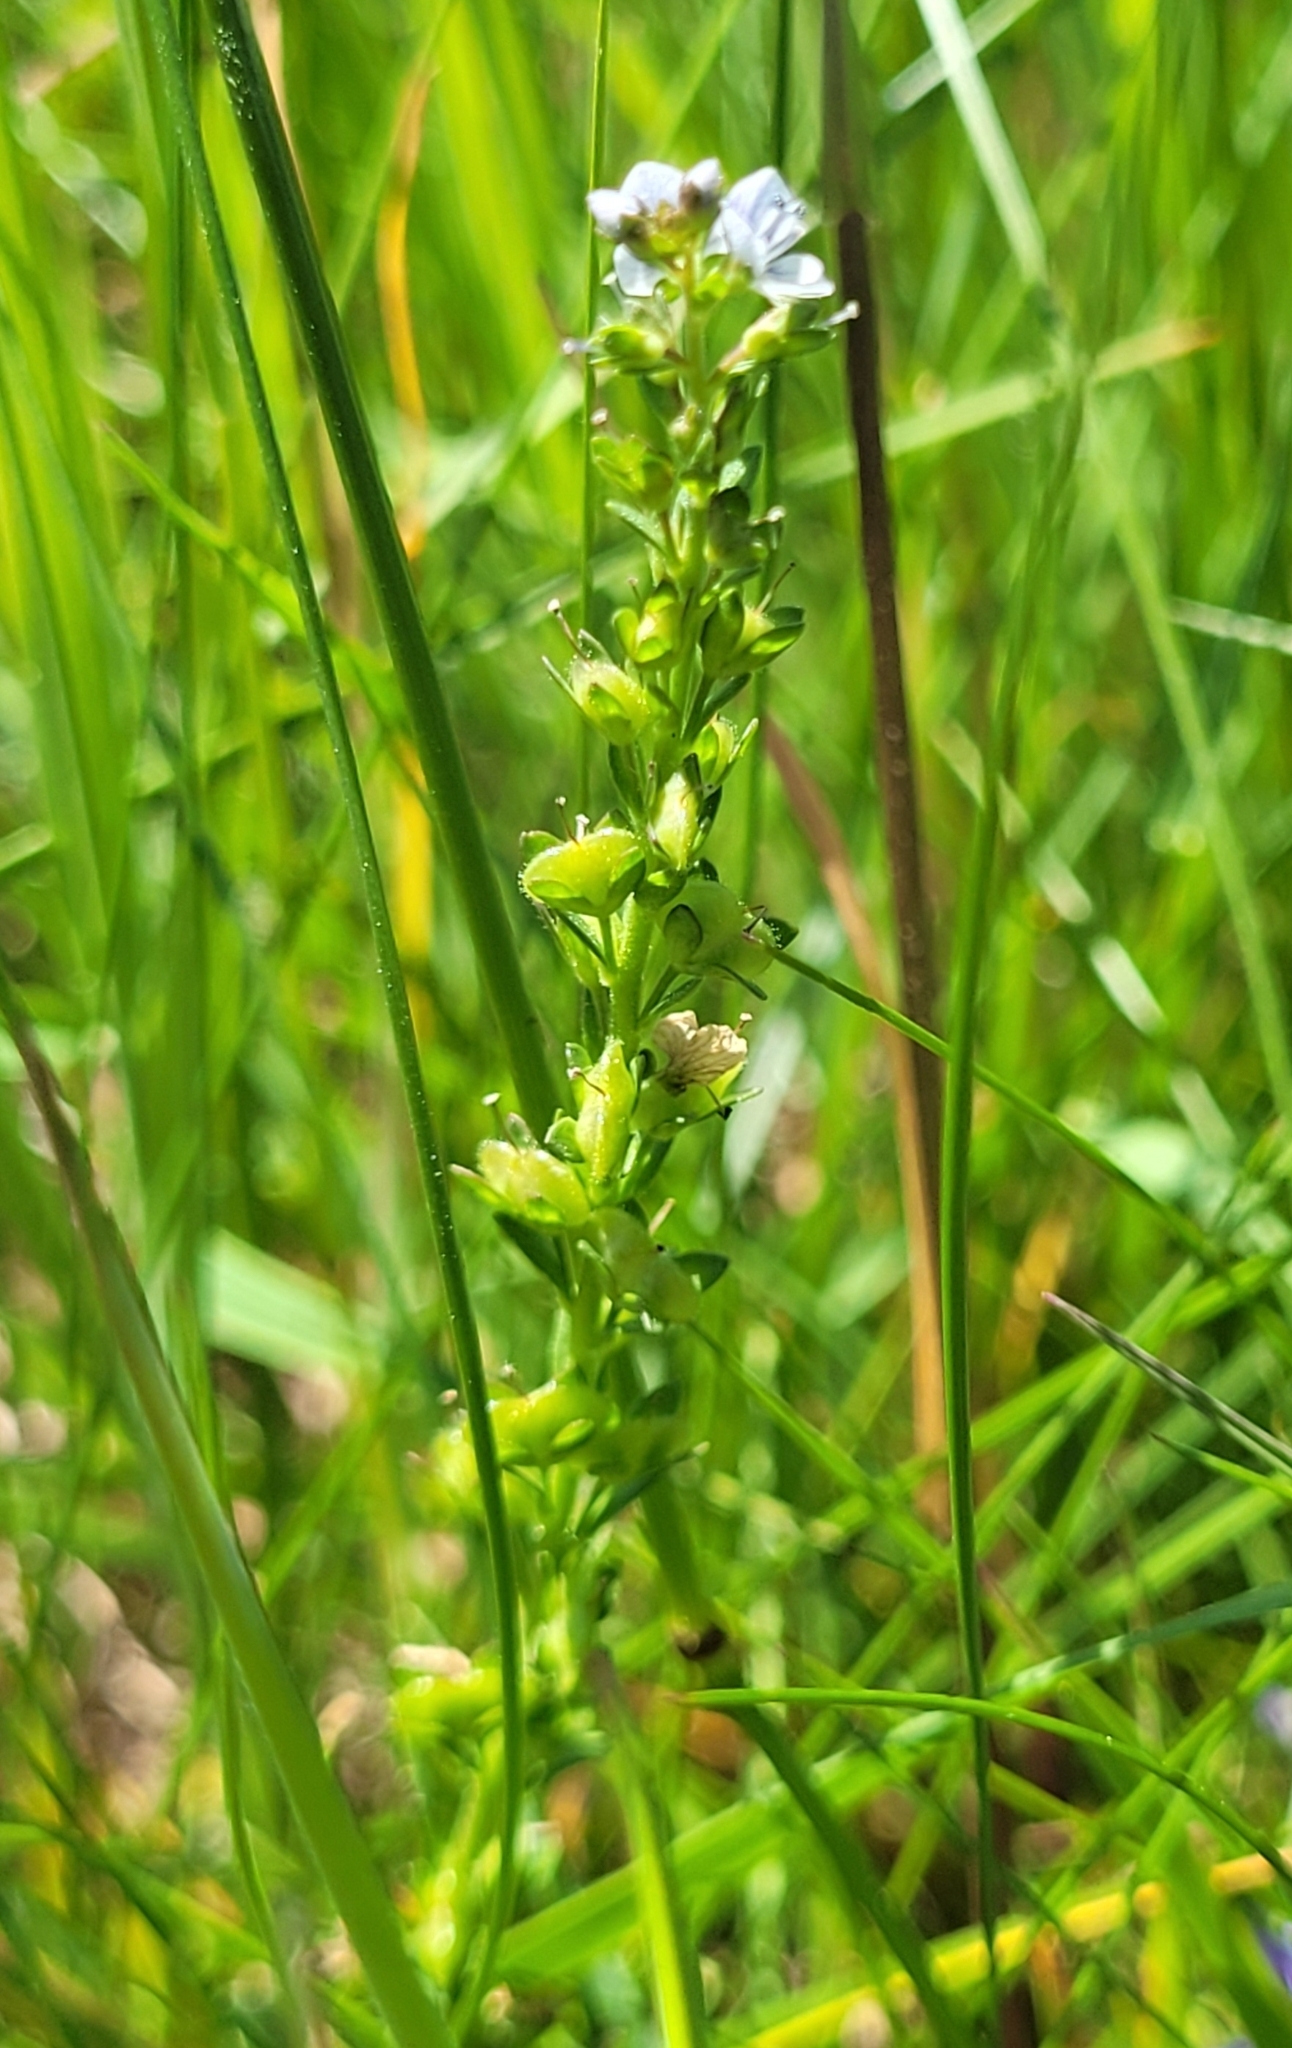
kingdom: Plantae
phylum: Tracheophyta
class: Magnoliopsida
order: Lamiales
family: Plantaginaceae
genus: Veronica
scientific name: Veronica serpyllifolia
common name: Thyme-leaved speedwell
